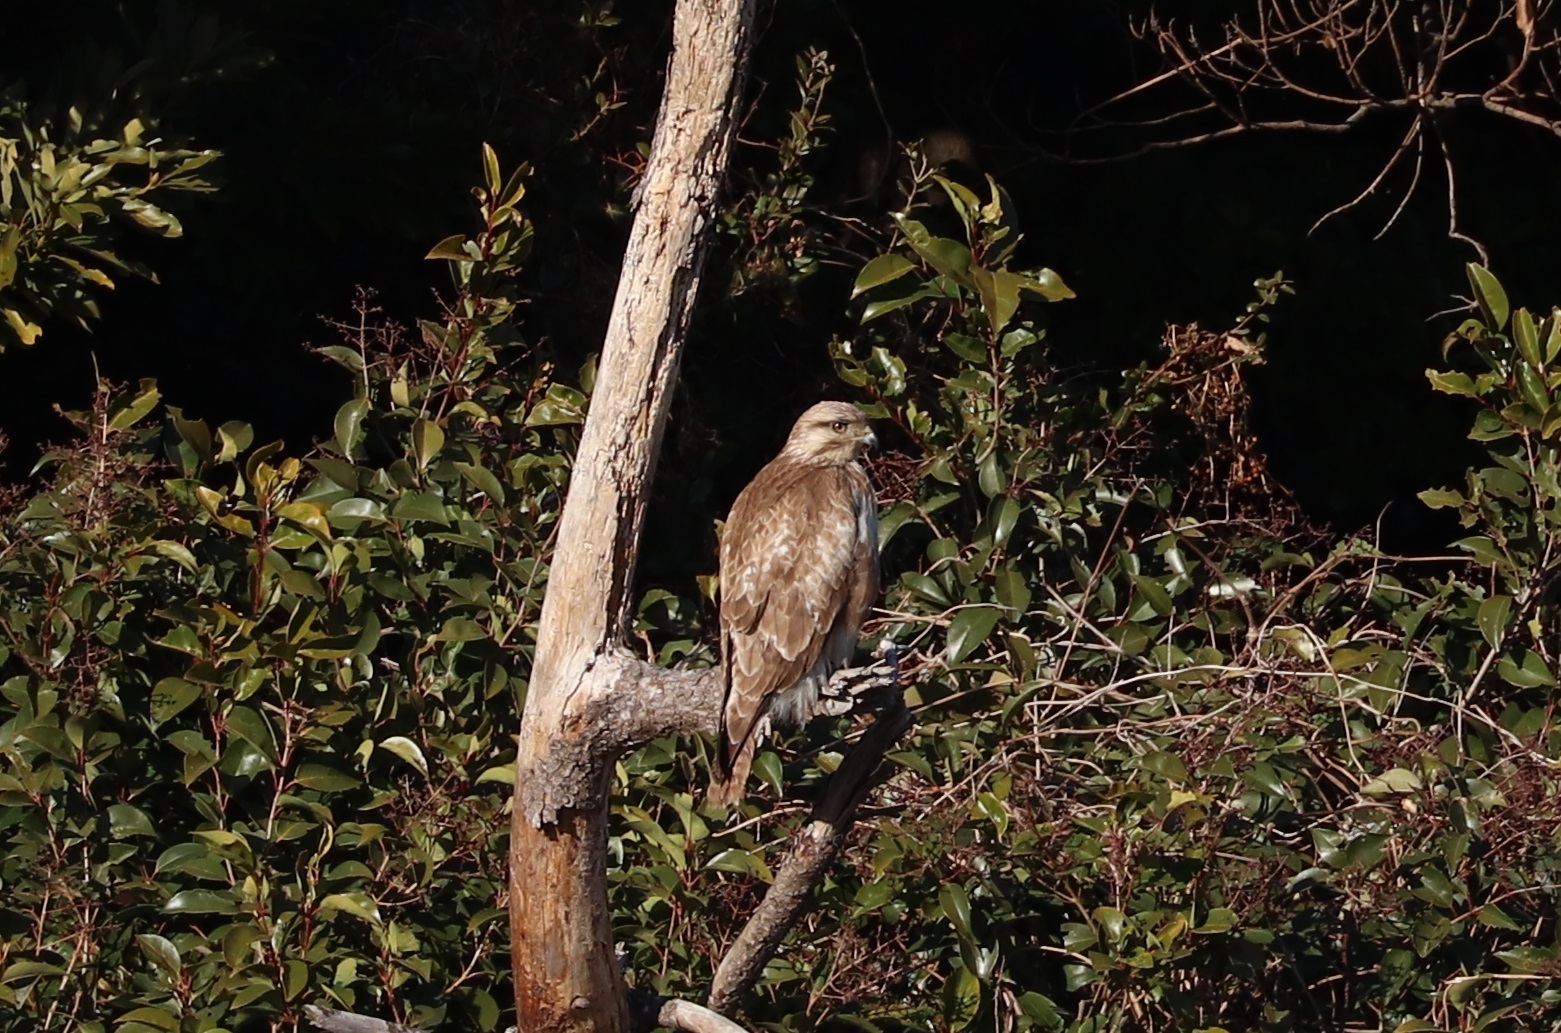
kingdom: Animalia
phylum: Chordata
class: Aves
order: Accipitriformes
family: Accipitridae
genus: Buteo
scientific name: Buteo japonicus
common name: Eastern buzzard
